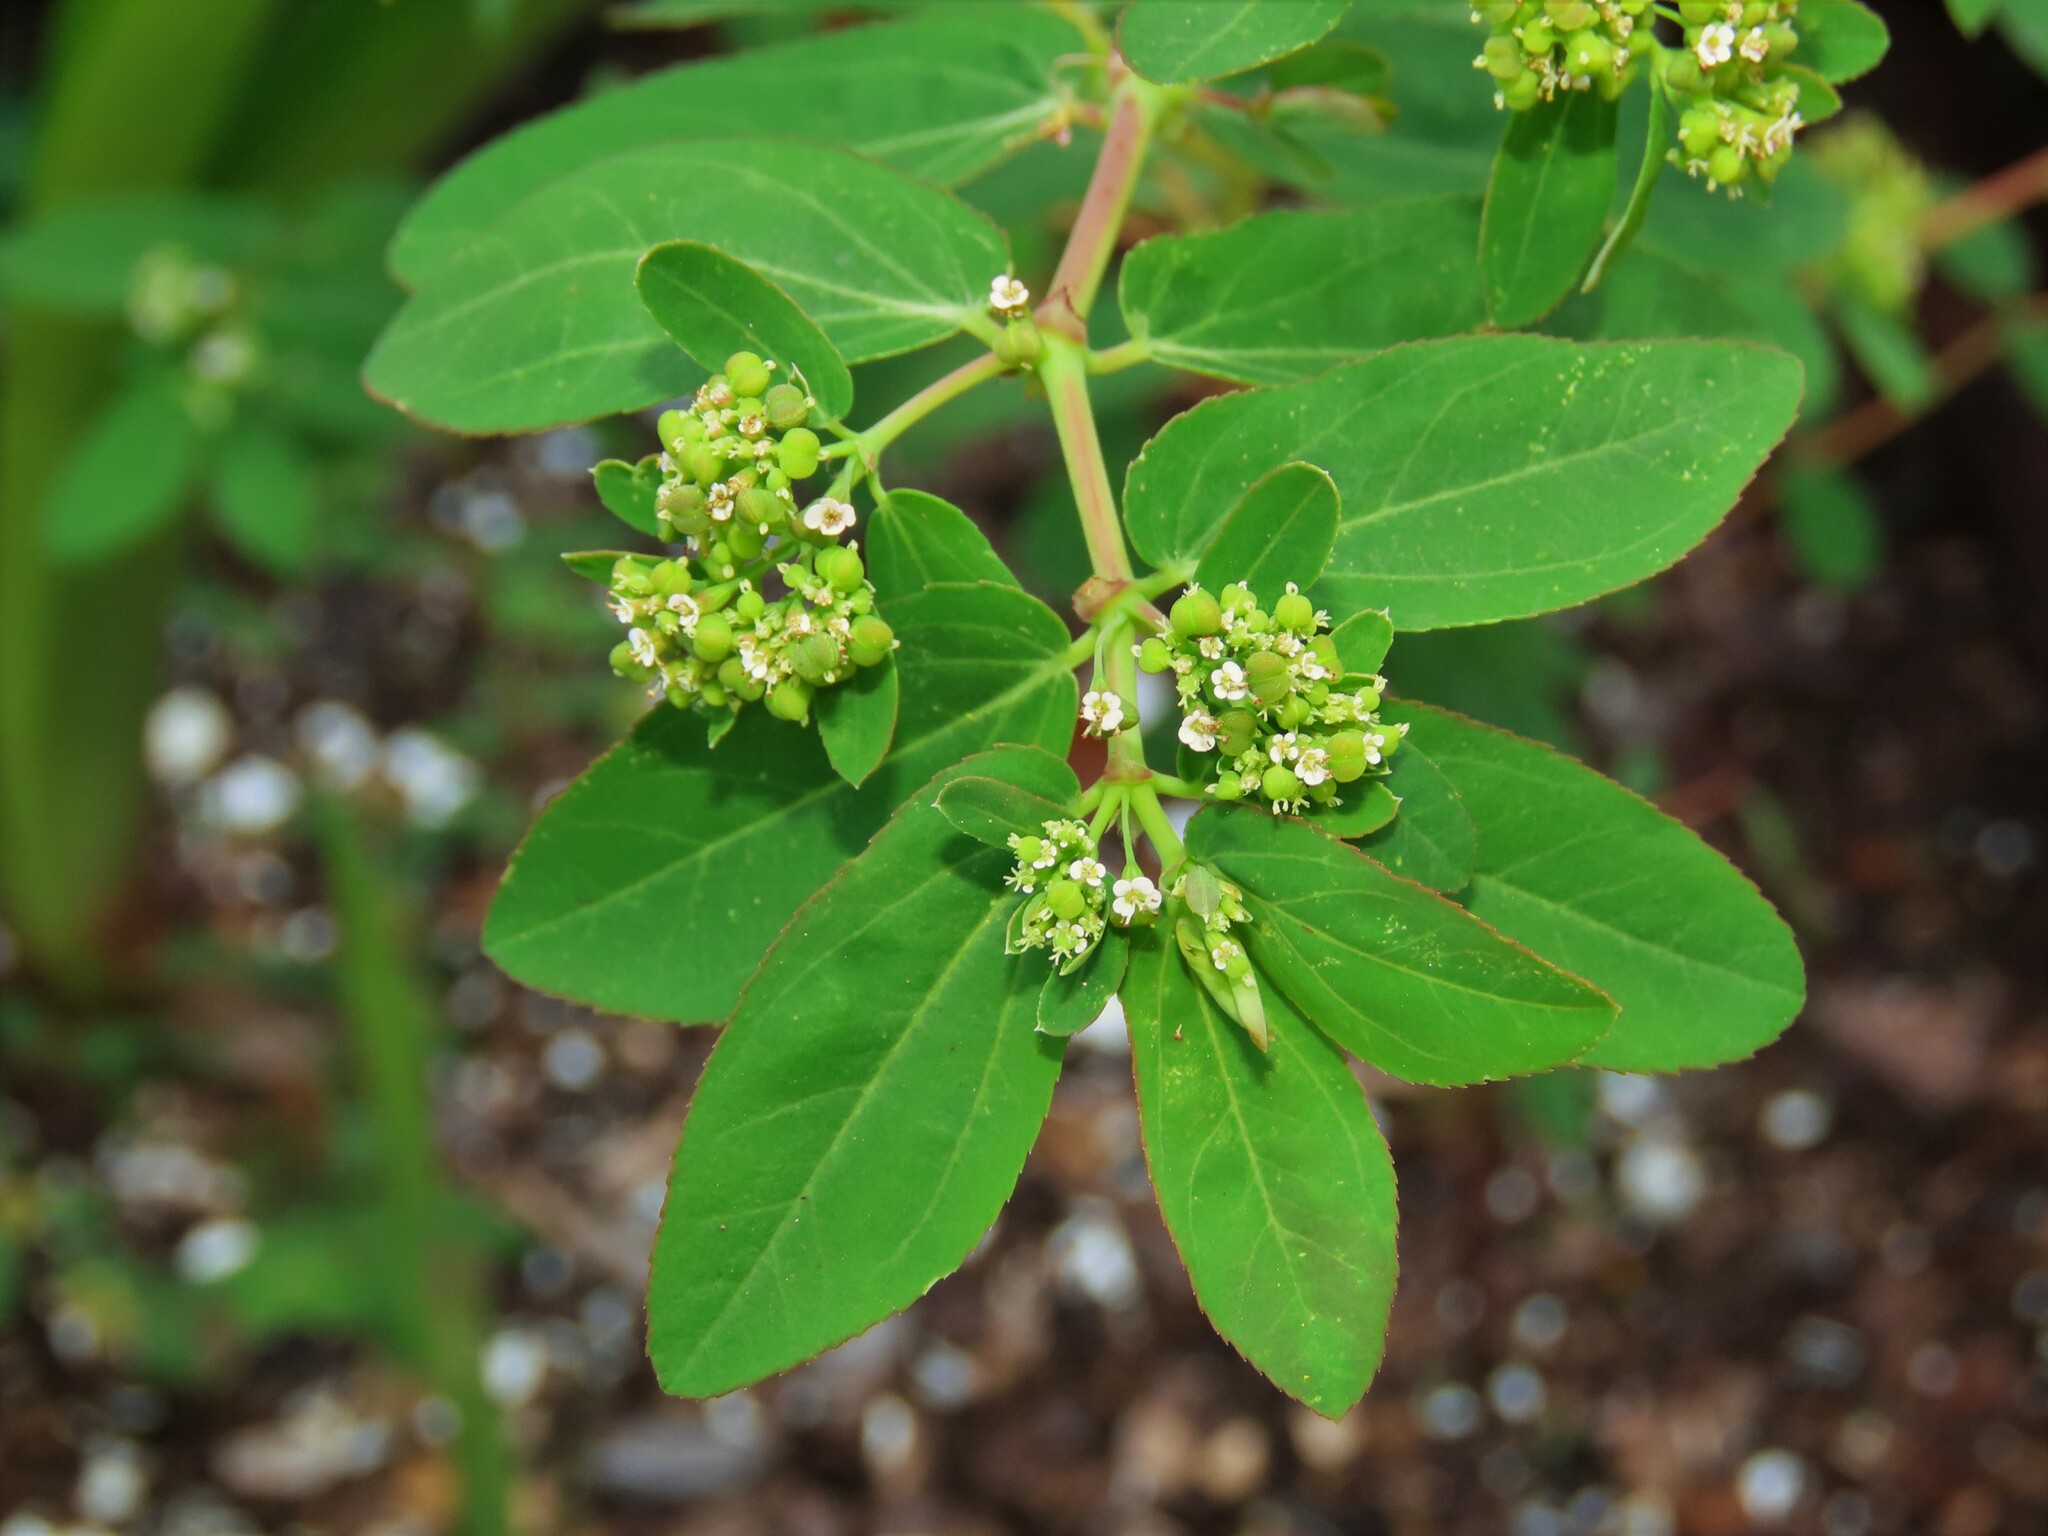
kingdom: Plantae
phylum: Tracheophyta
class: Magnoliopsida
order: Malpighiales
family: Euphorbiaceae
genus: Euphorbia
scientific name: Euphorbia hypericifolia
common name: Graceful sandmat
